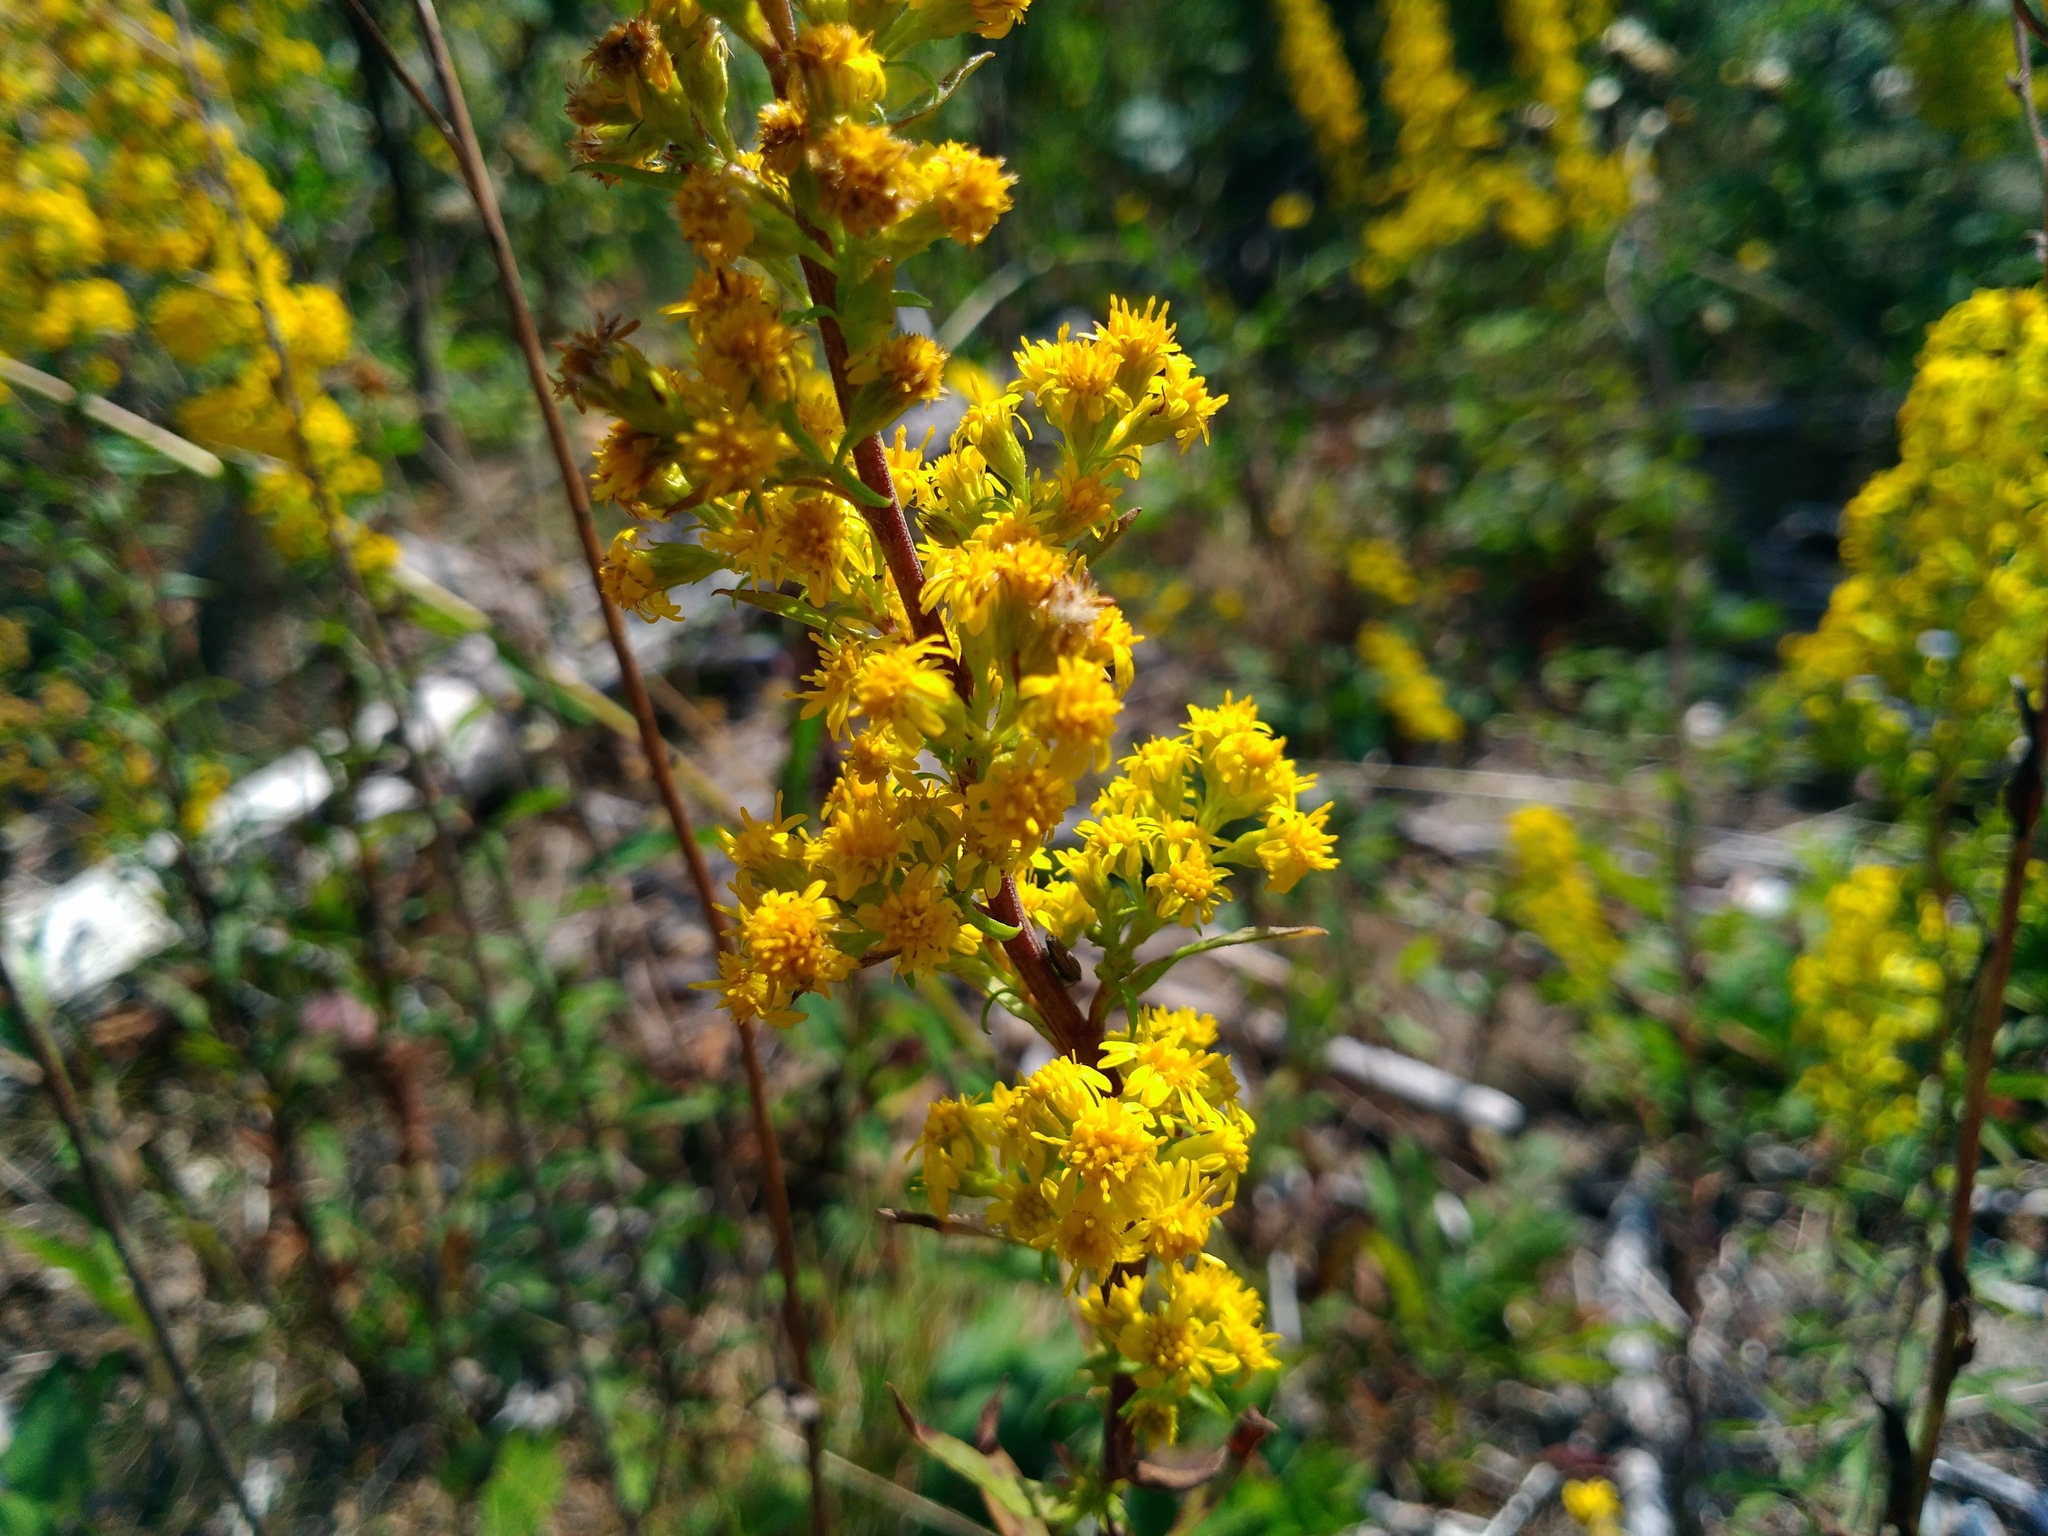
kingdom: Plantae
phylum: Tracheophyta
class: Magnoliopsida
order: Asterales
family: Asteraceae
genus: Solidago
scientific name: Solidago puberula
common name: Downy goldenrod
